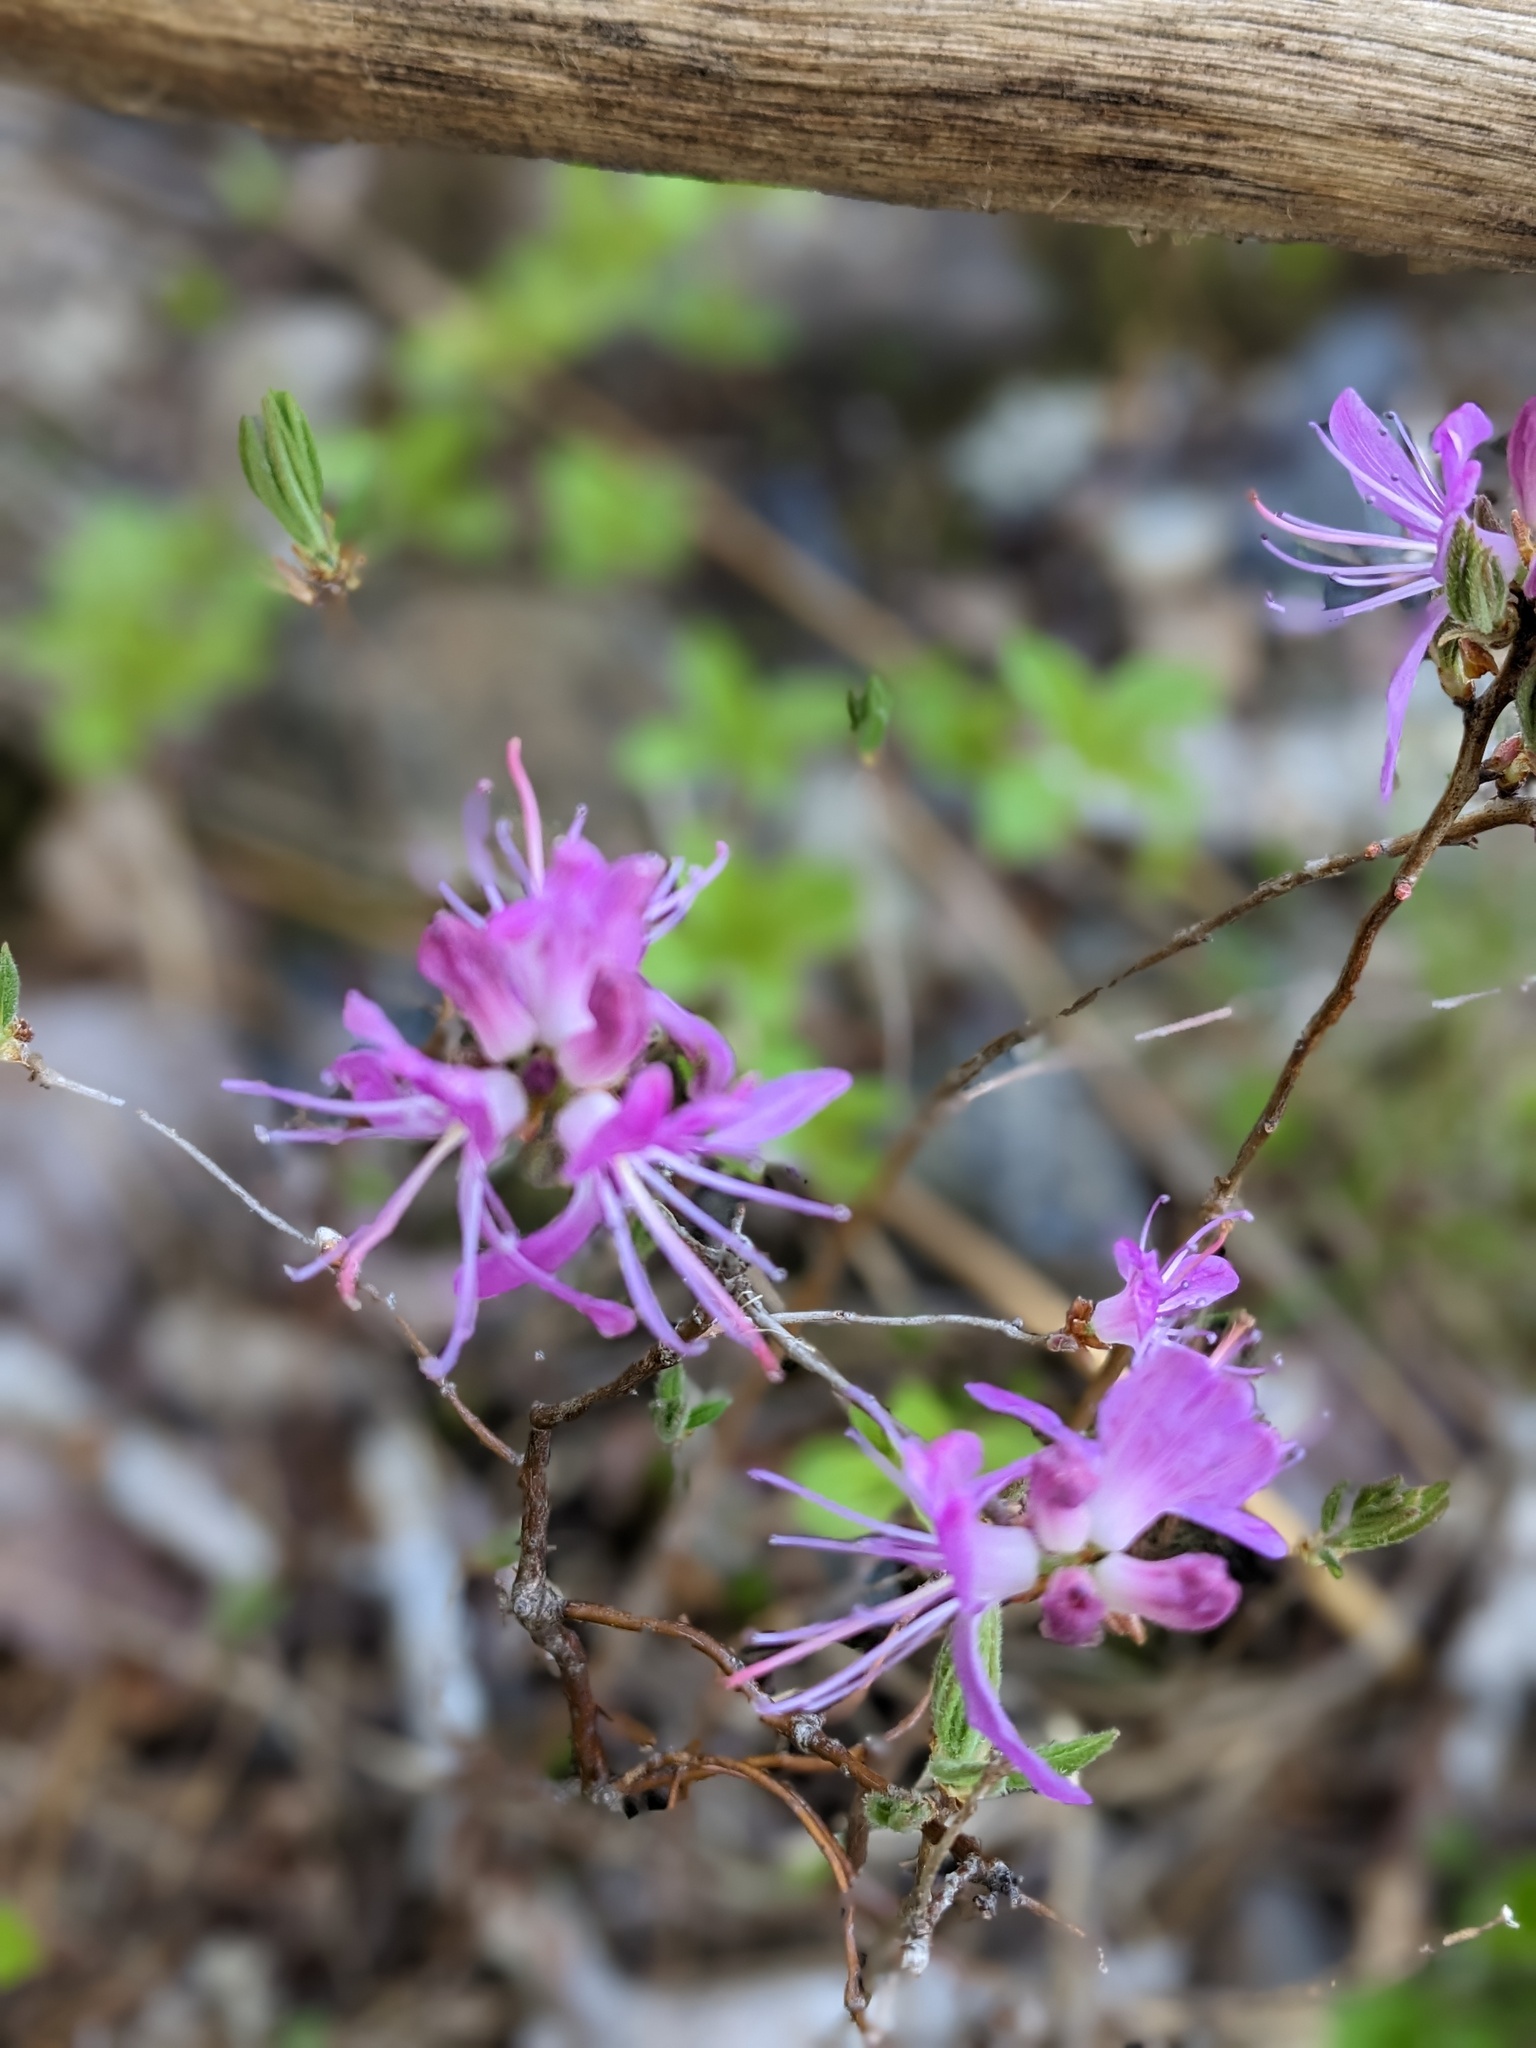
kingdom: Plantae
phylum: Tracheophyta
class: Magnoliopsida
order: Ericales
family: Ericaceae
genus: Rhododendron
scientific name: Rhododendron canadense
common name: Rhodora
